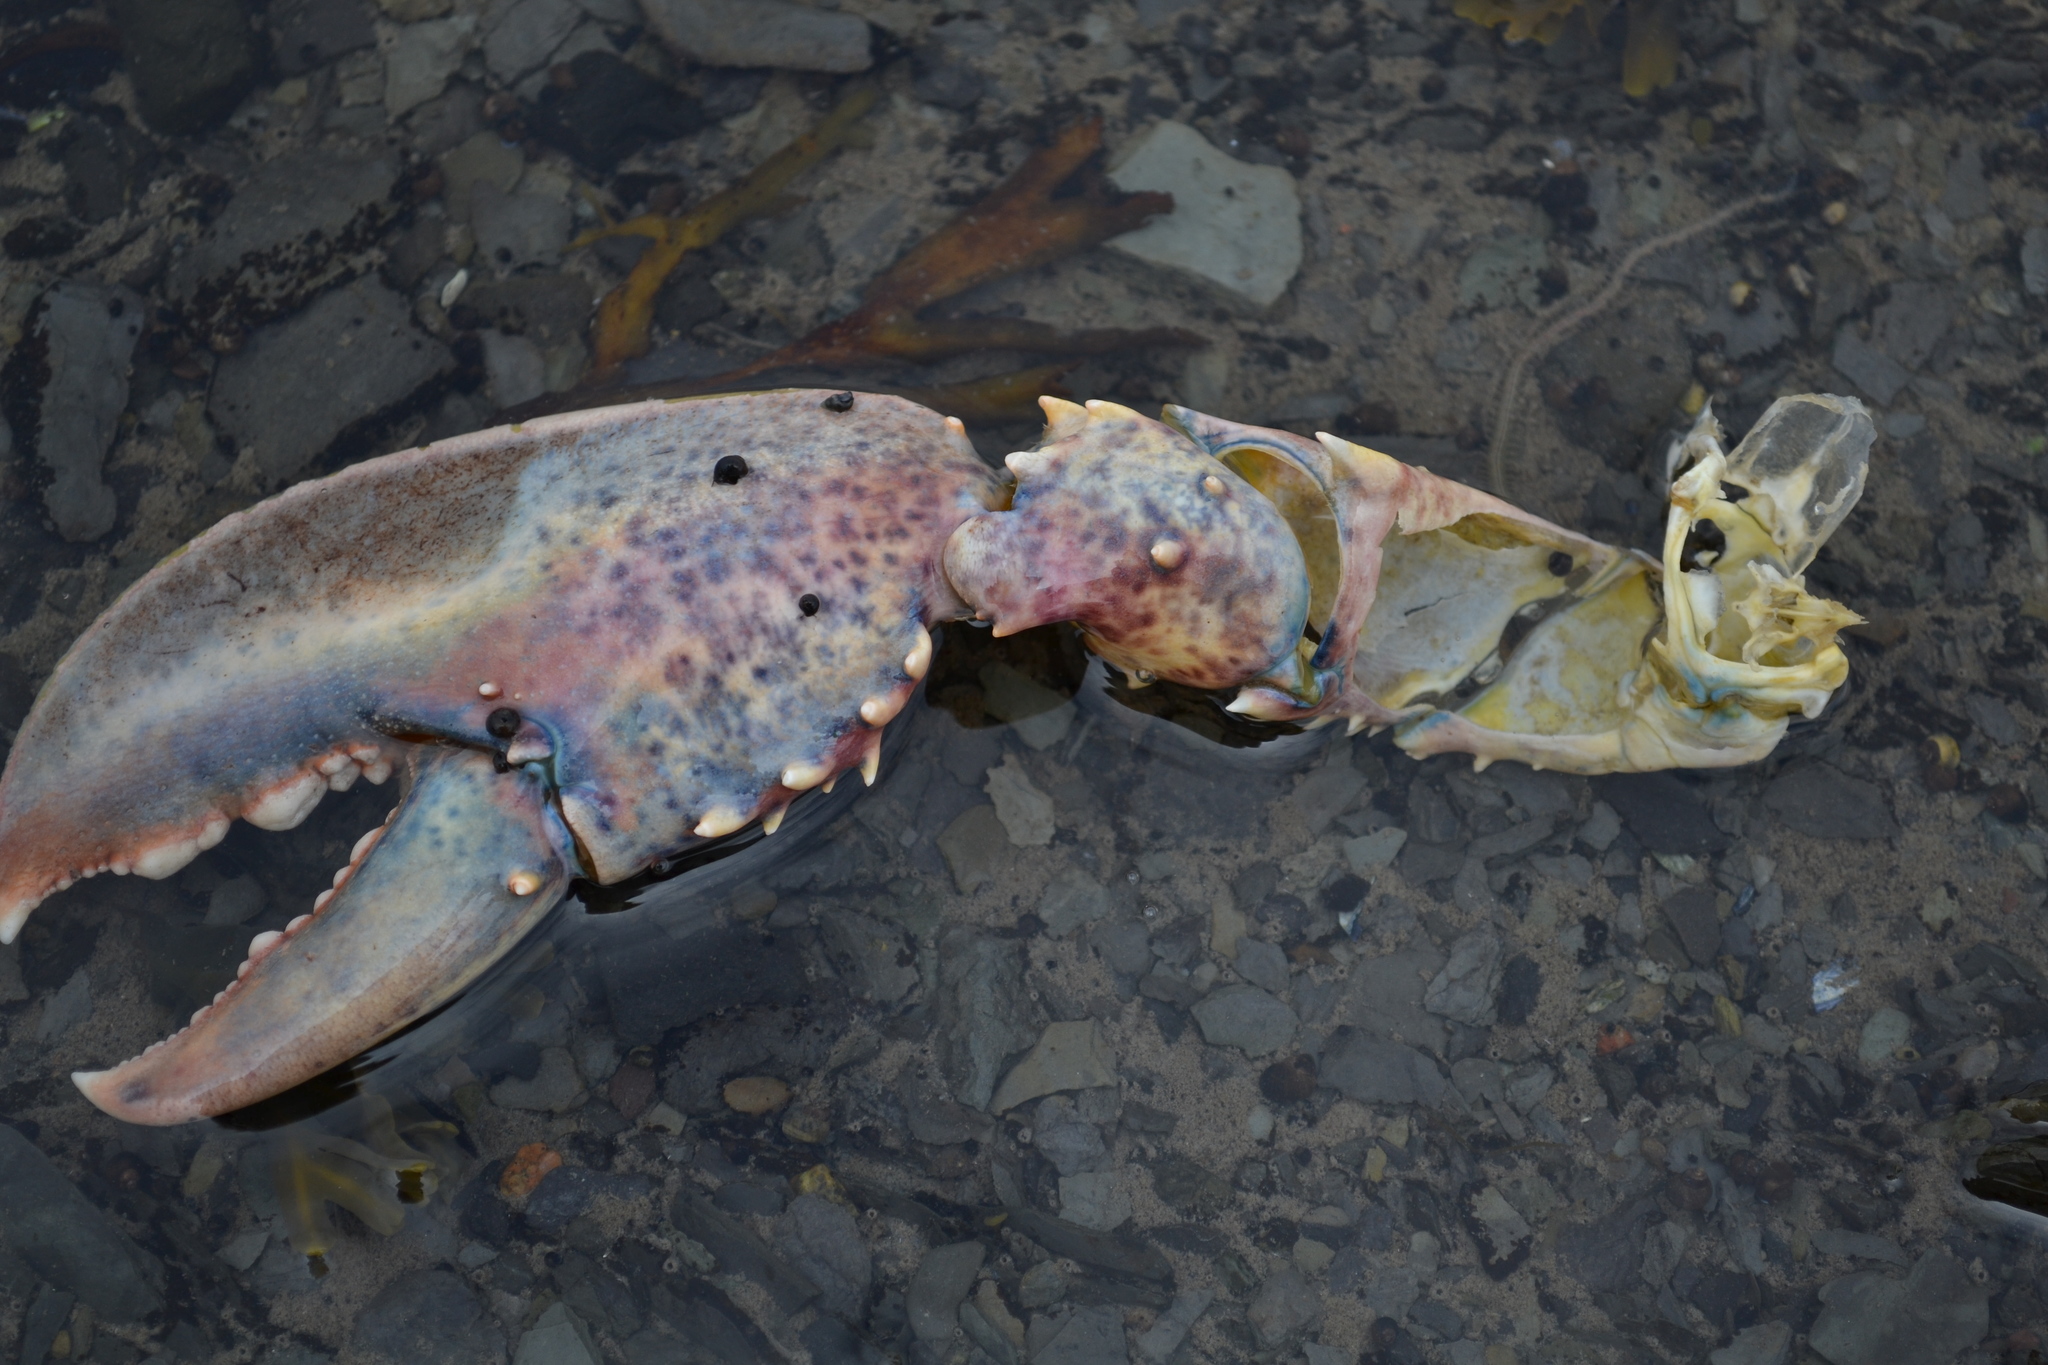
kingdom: Animalia
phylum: Arthropoda
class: Malacostraca
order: Decapoda
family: Nephropidae
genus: Homarus
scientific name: Homarus americanus
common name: American lobster
